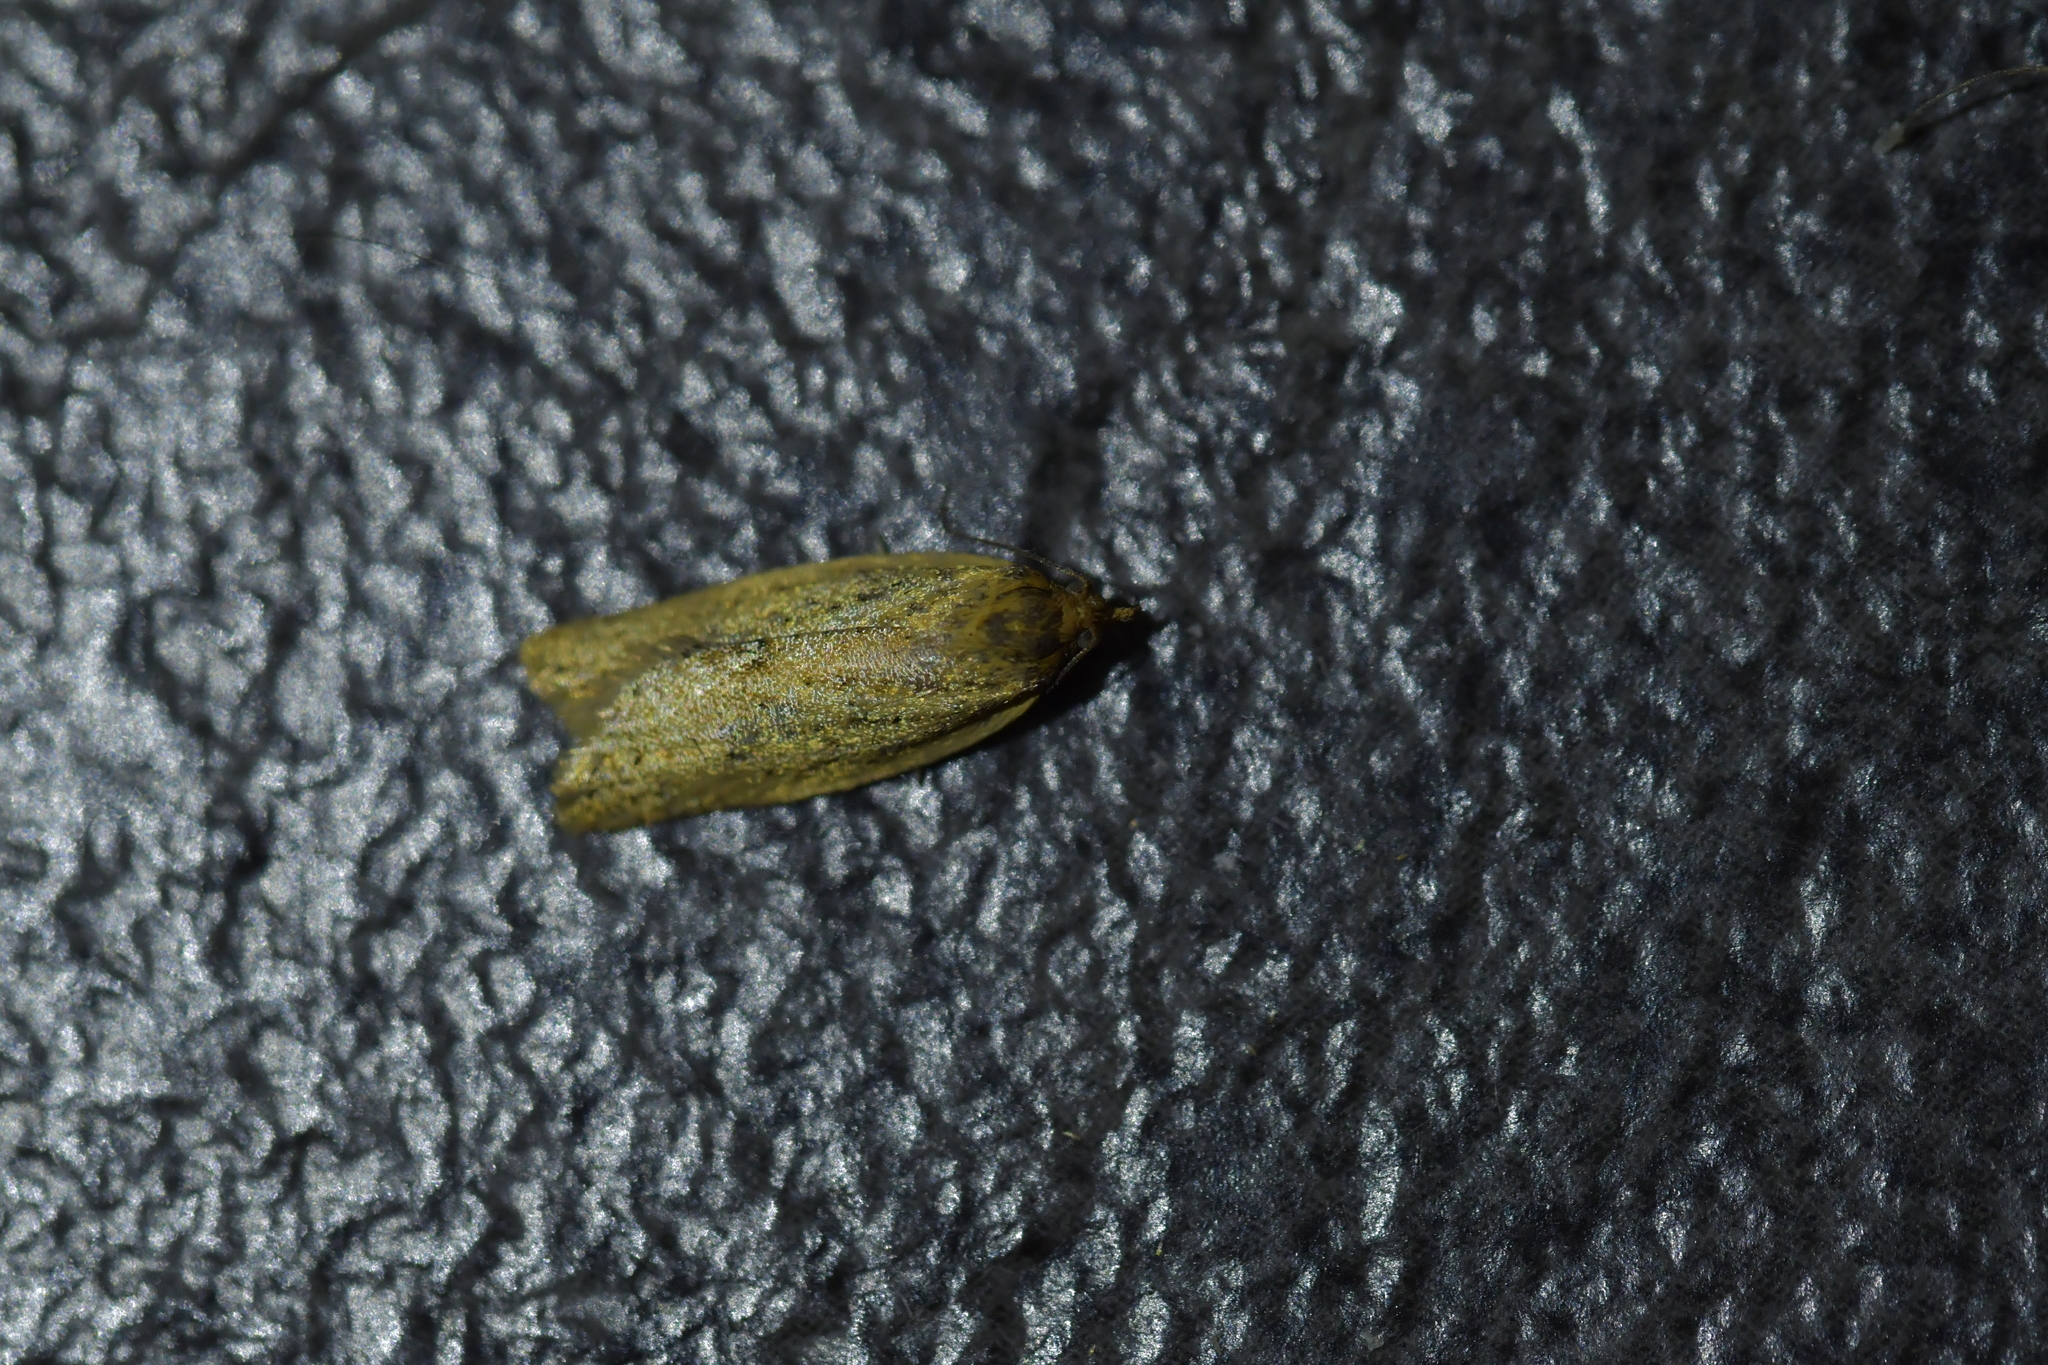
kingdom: Animalia
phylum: Arthropoda
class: Insecta
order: Lepidoptera
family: Tortricidae
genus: Clepsis
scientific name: Clepsis
